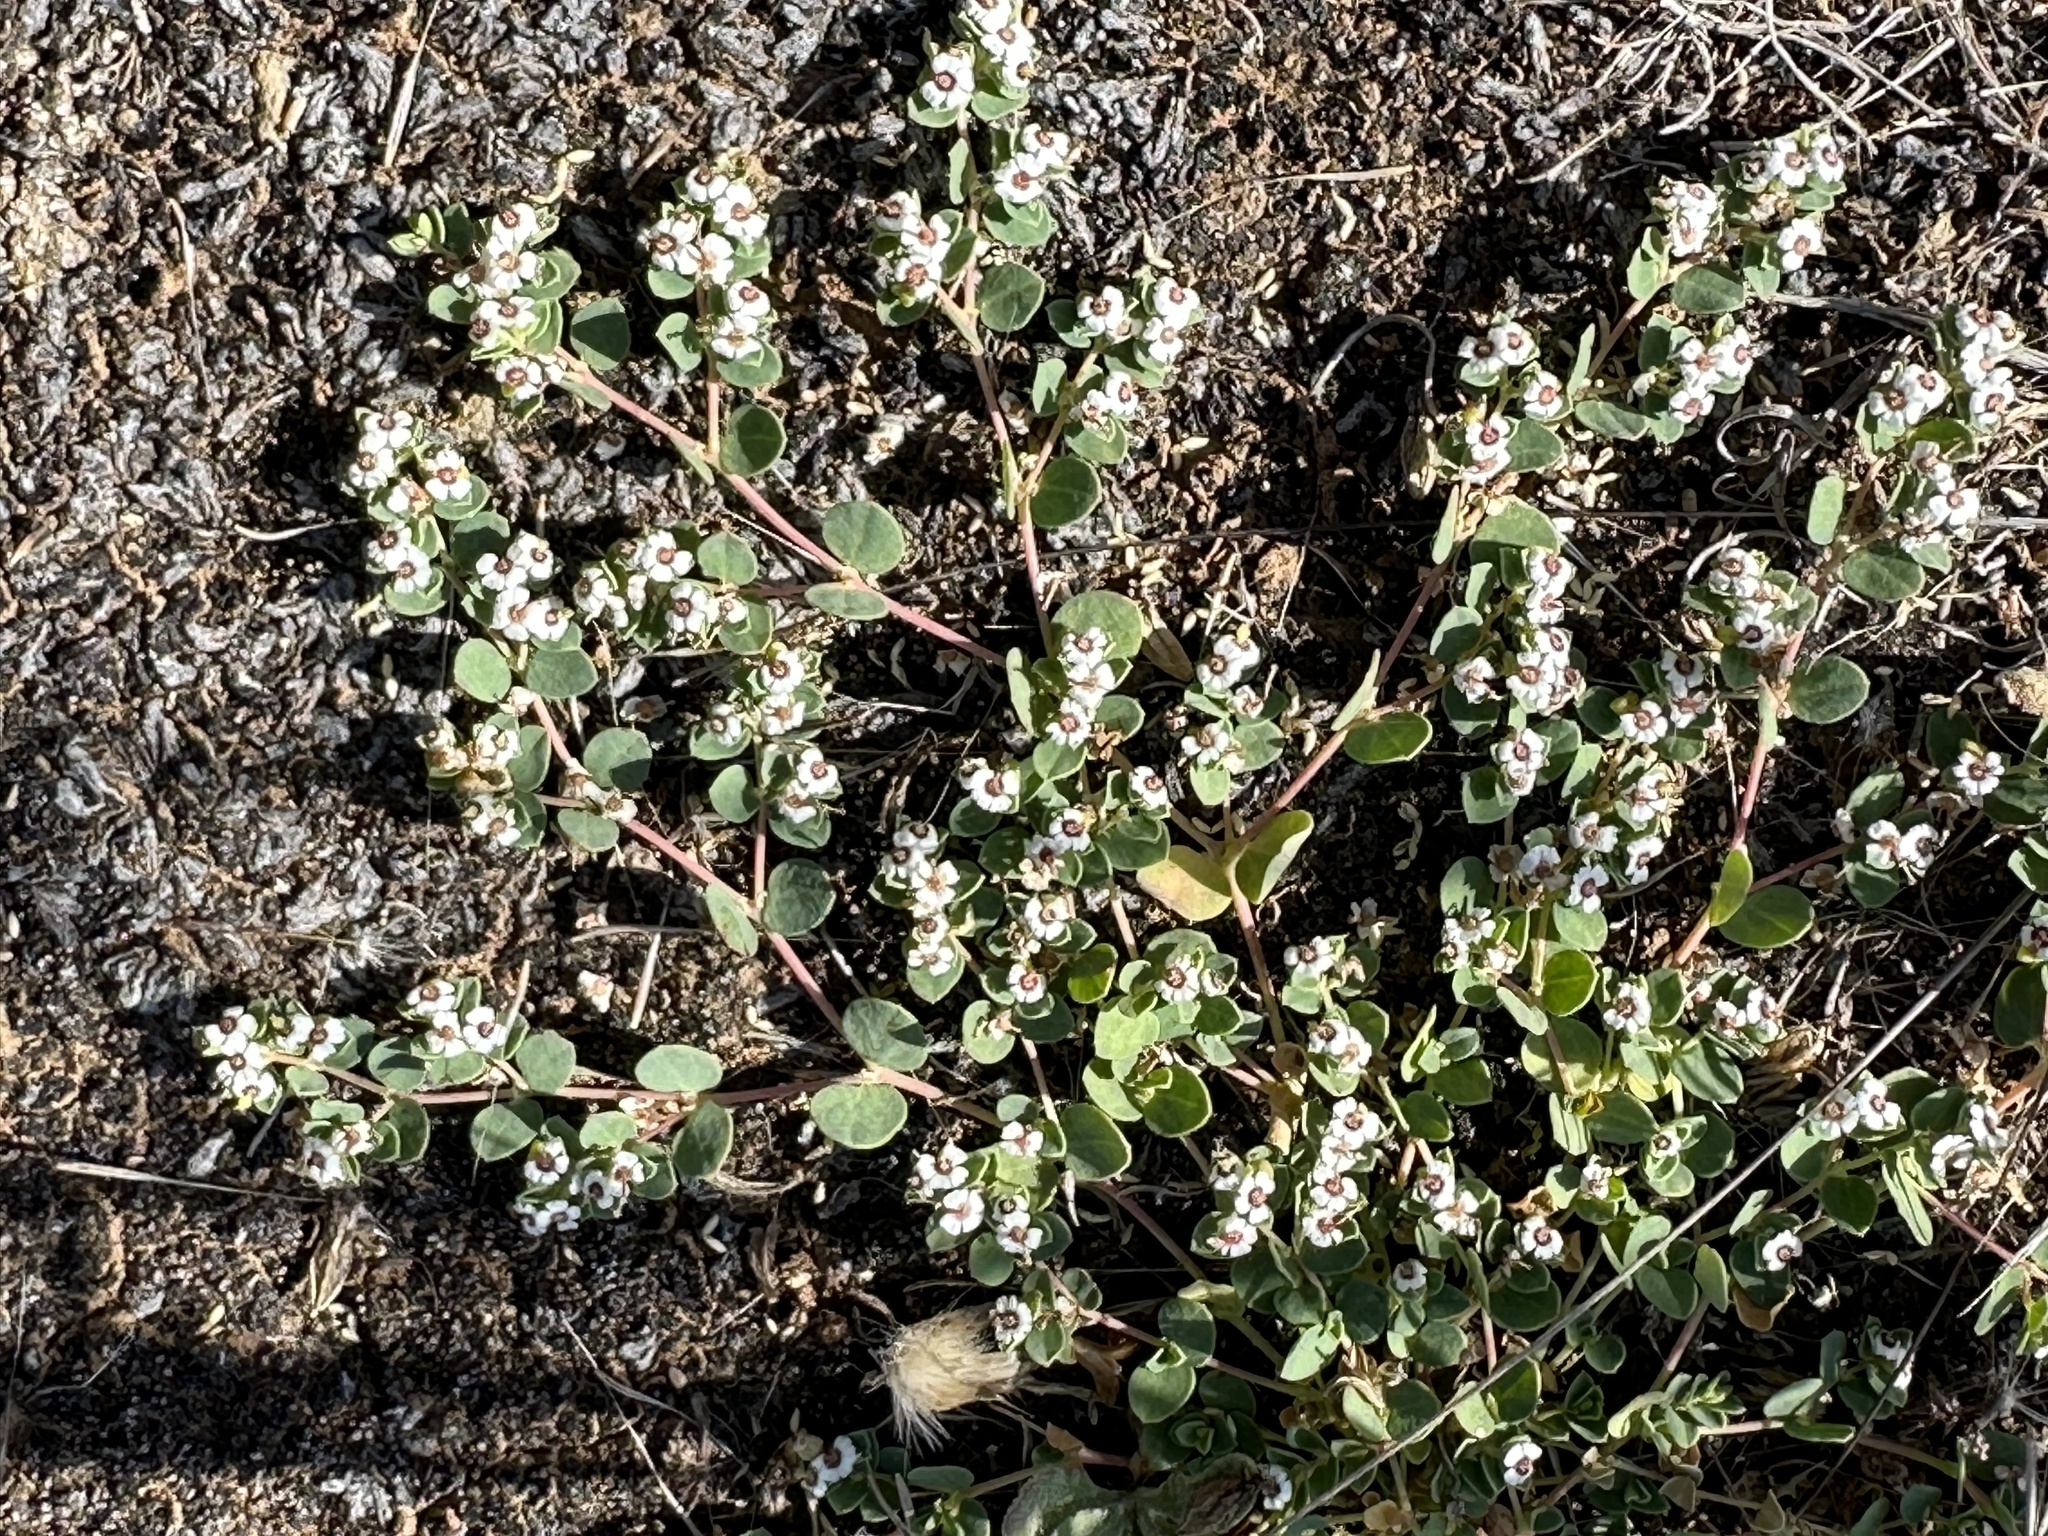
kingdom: Plantae
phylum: Tracheophyta
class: Magnoliopsida
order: Malpighiales
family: Euphorbiaceae
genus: Euphorbia
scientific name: Euphorbia polycarpa
